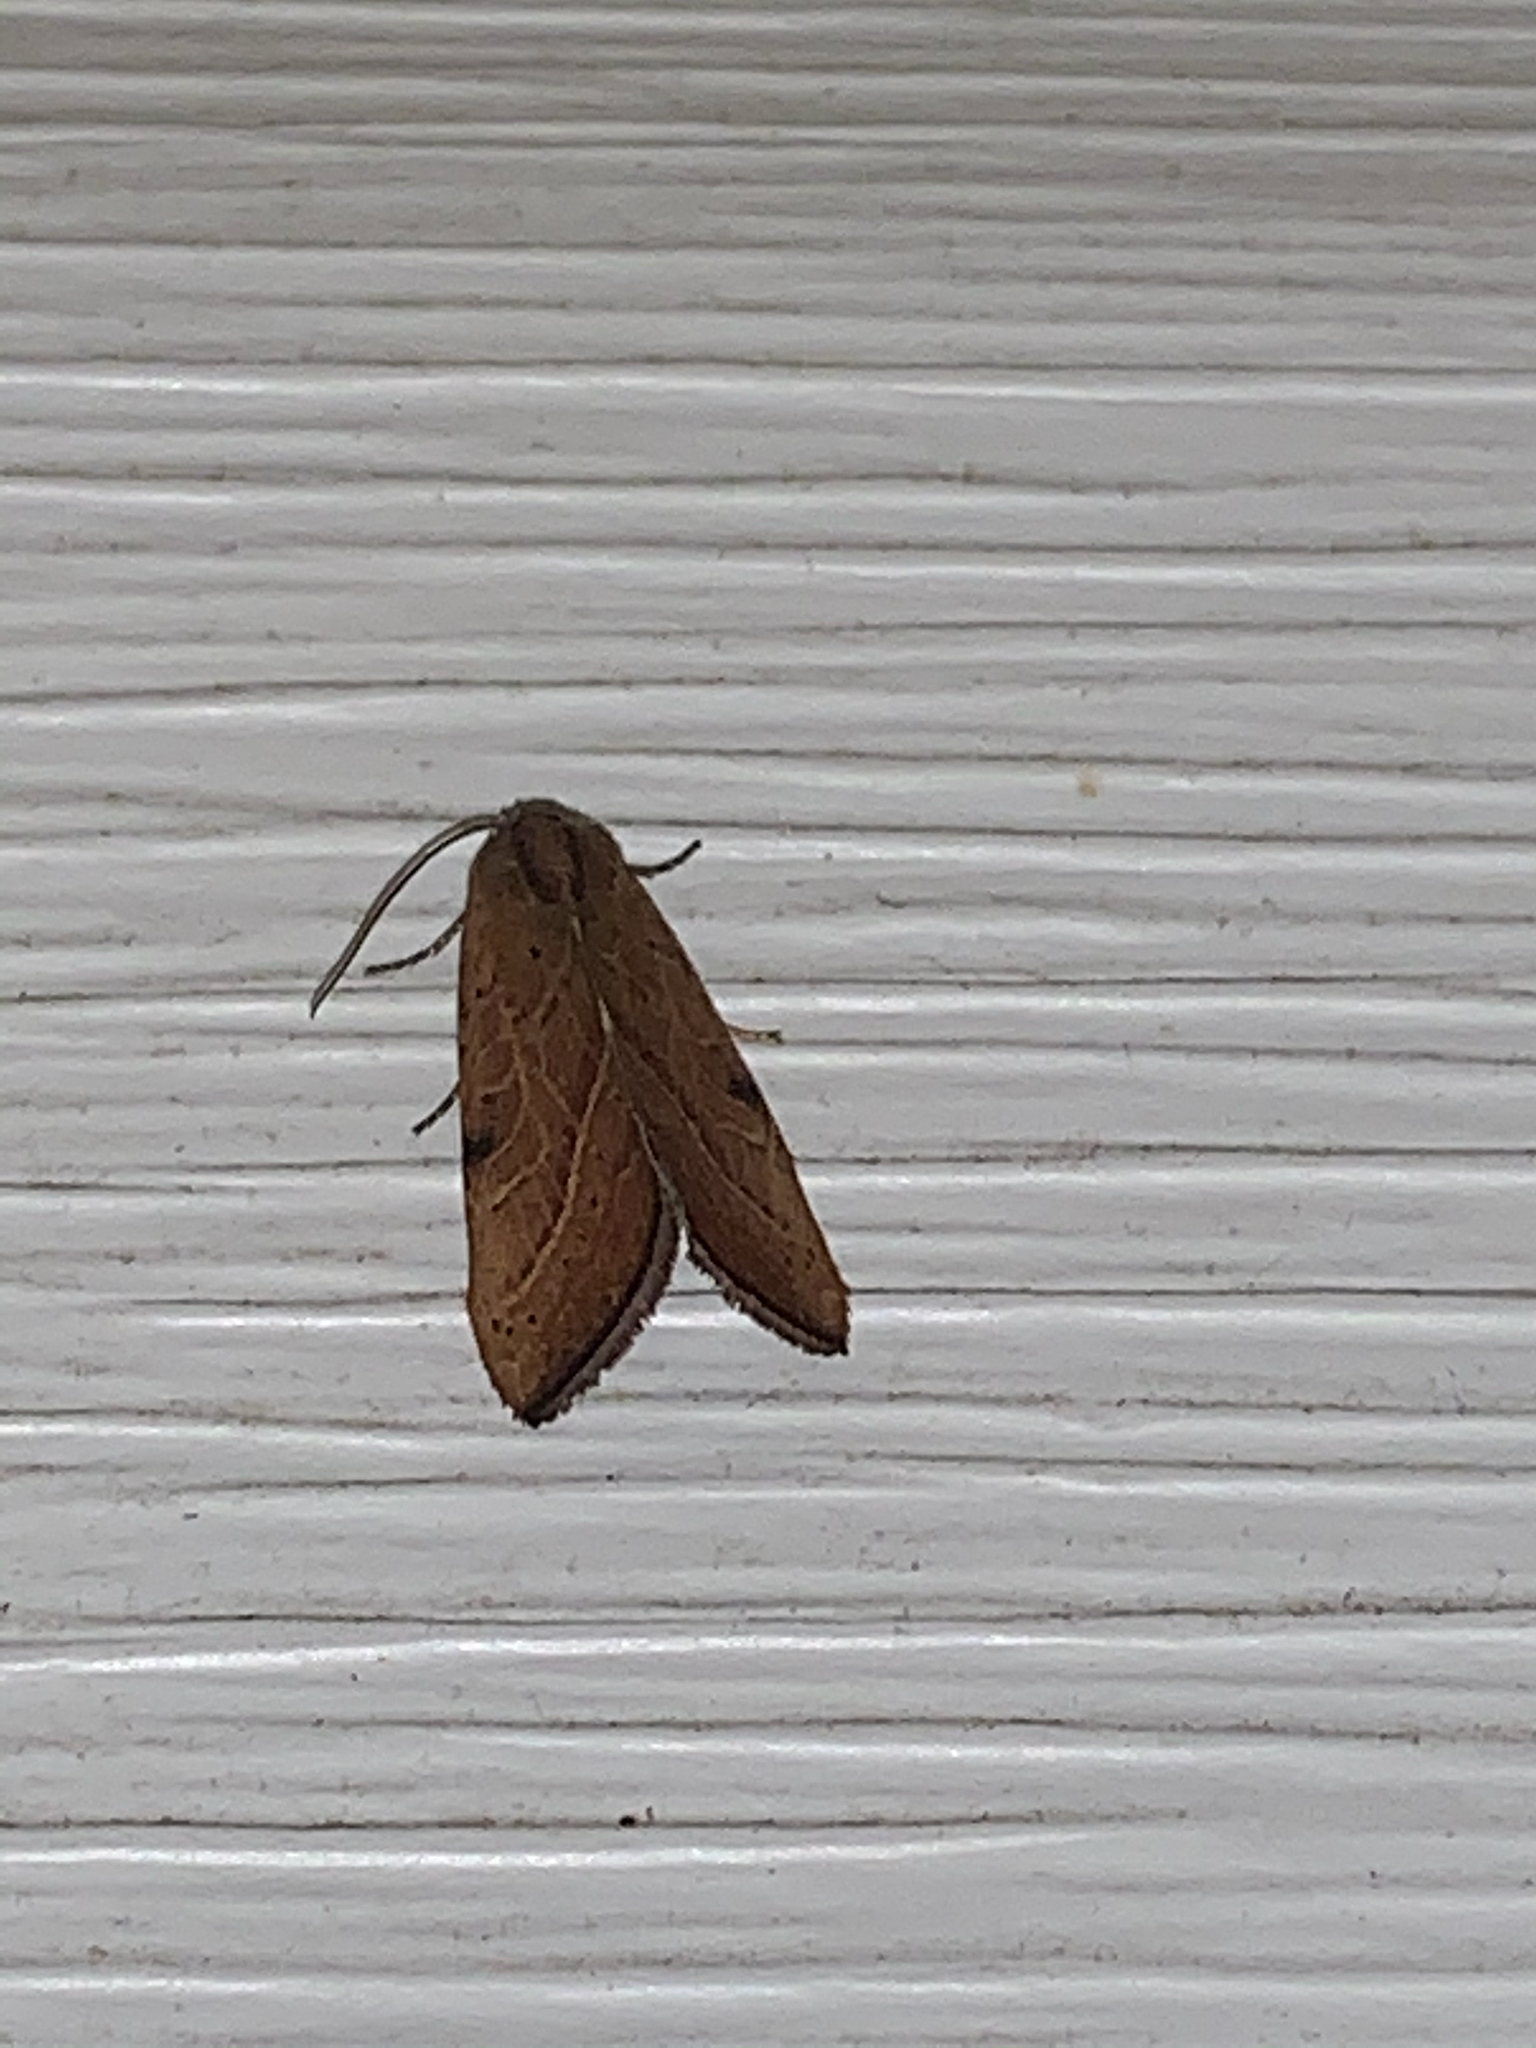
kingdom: Animalia
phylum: Arthropoda
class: Insecta
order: Lepidoptera
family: Noctuidae
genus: Galgula
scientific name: Galgula partita
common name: Wedgeling
